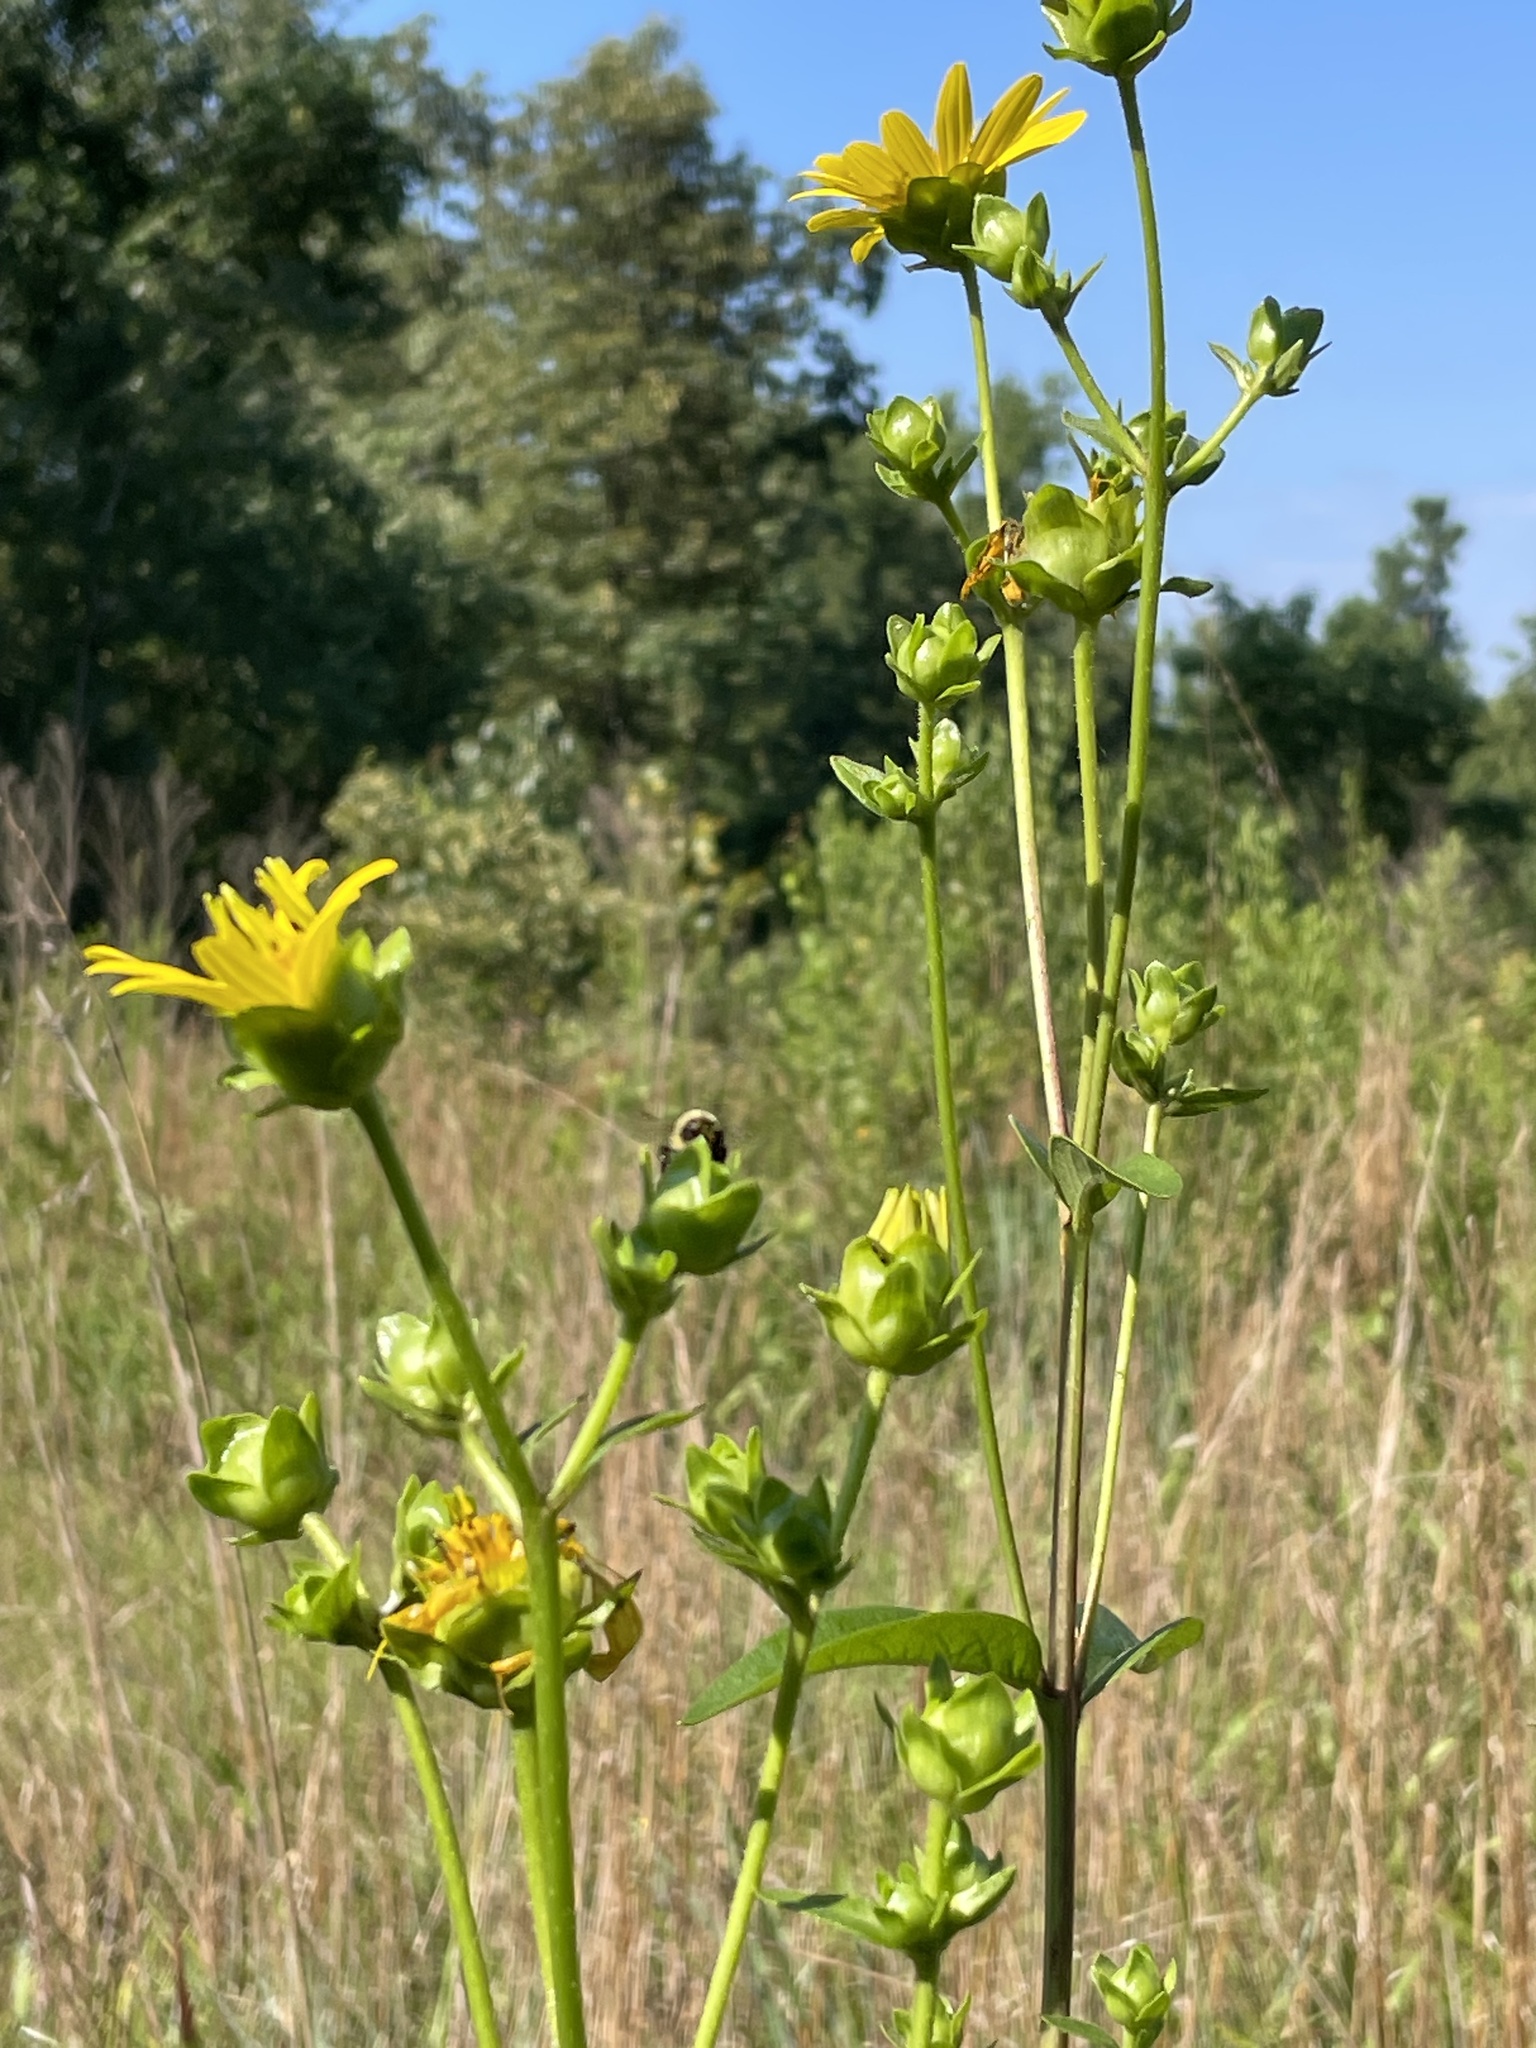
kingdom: Plantae
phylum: Tracheophyta
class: Magnoliopsida
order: Asterales
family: Asteraceae
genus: Silphium
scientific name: Silphium asteriscus
